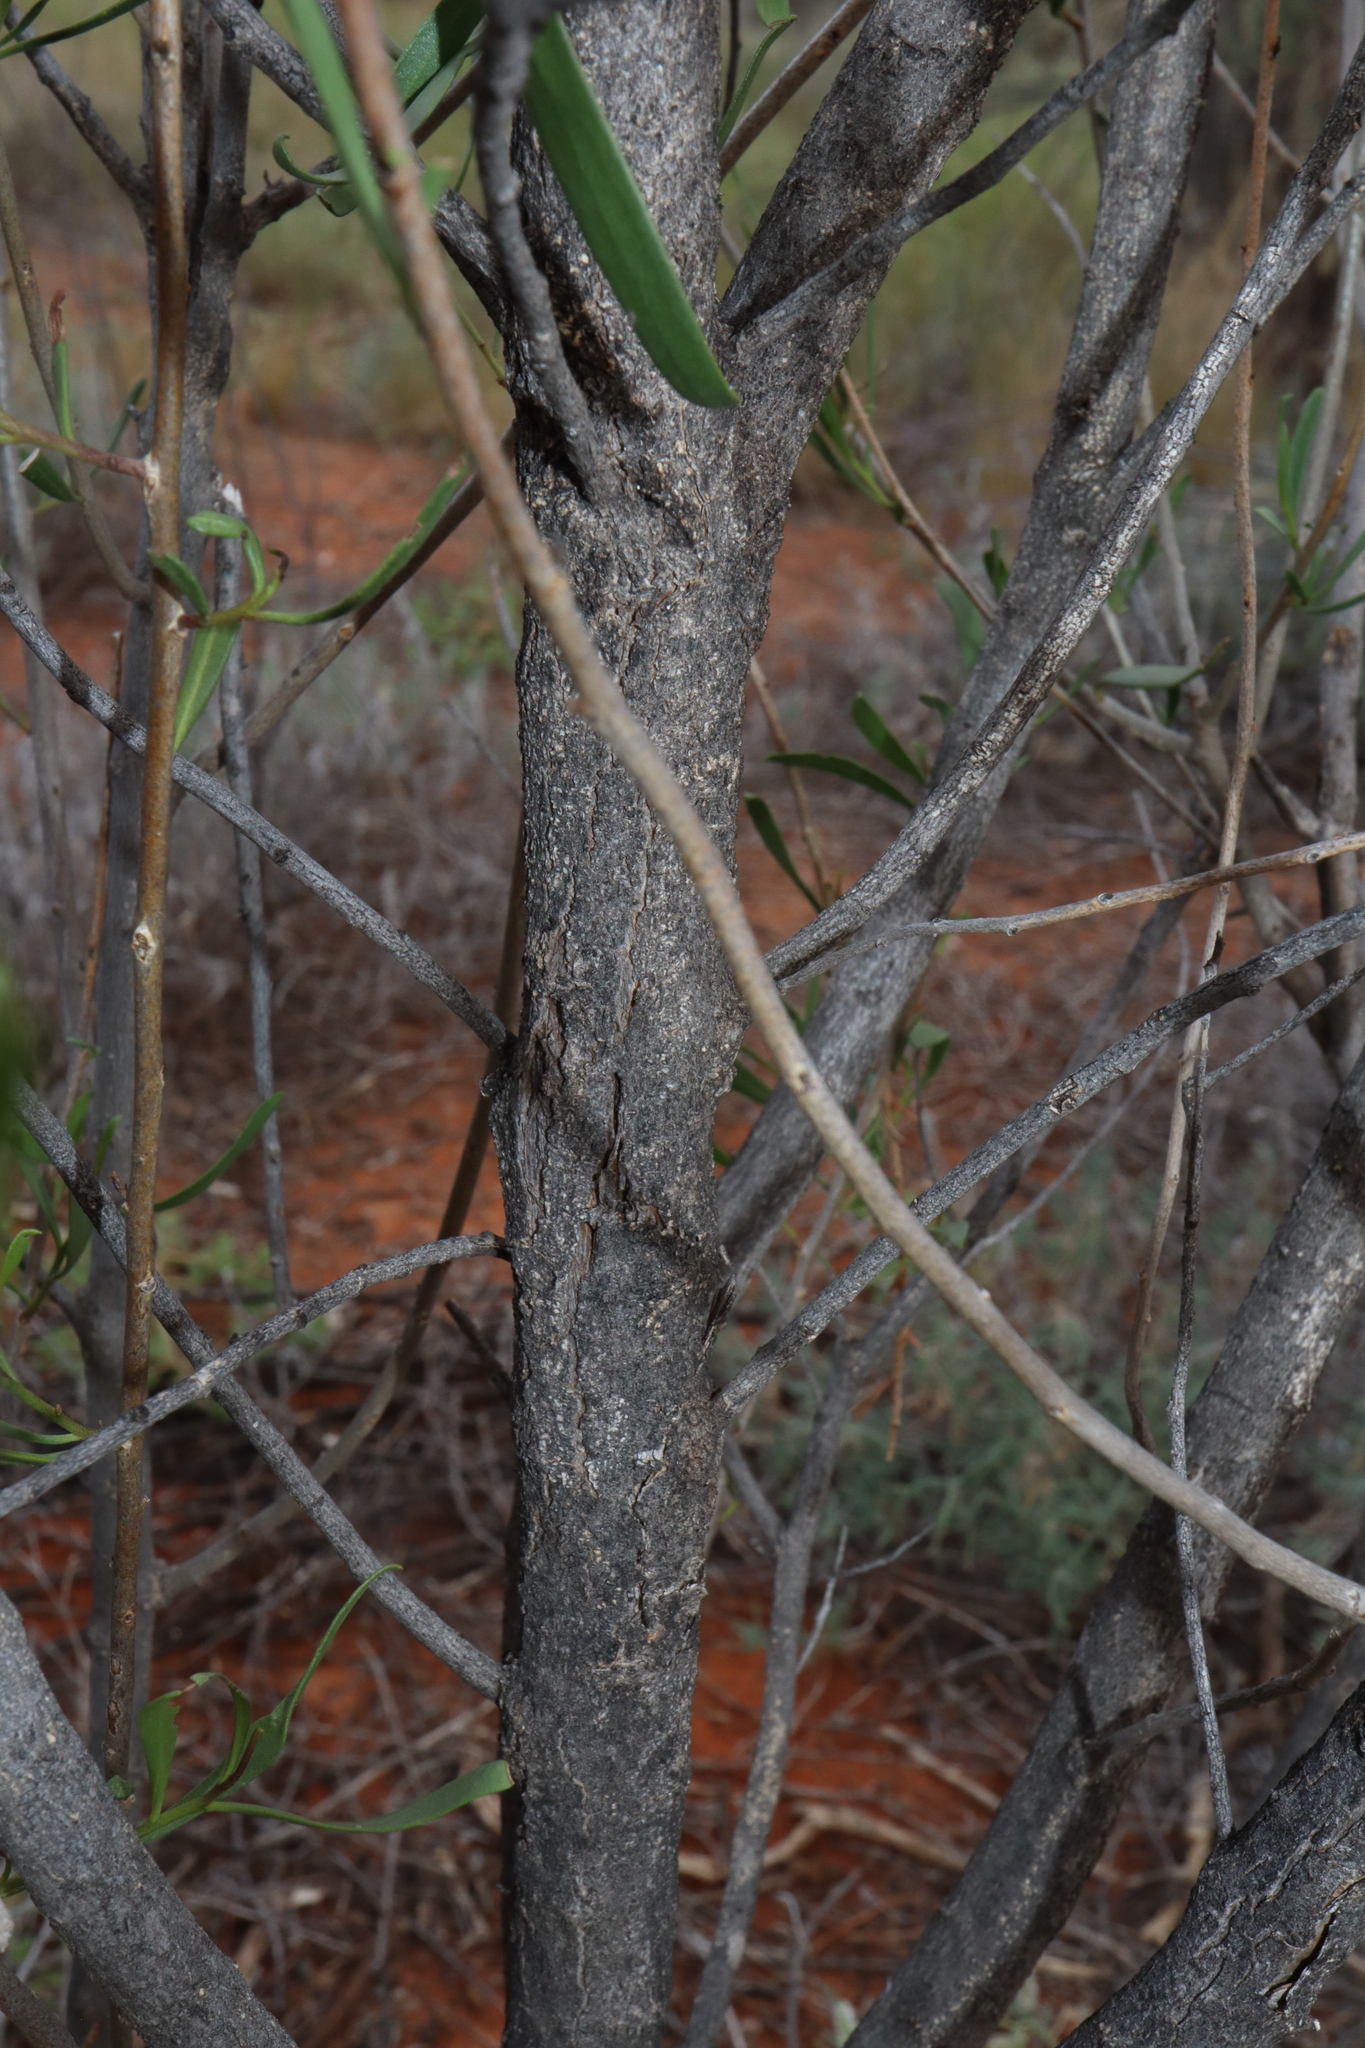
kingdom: Plantae
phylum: Tracheophyta
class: Magnoliopsida
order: Lamiales
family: Scrophulariaceae
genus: Eremophila
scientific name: Eremophila deserti
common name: Ellangowan-poisonbush
